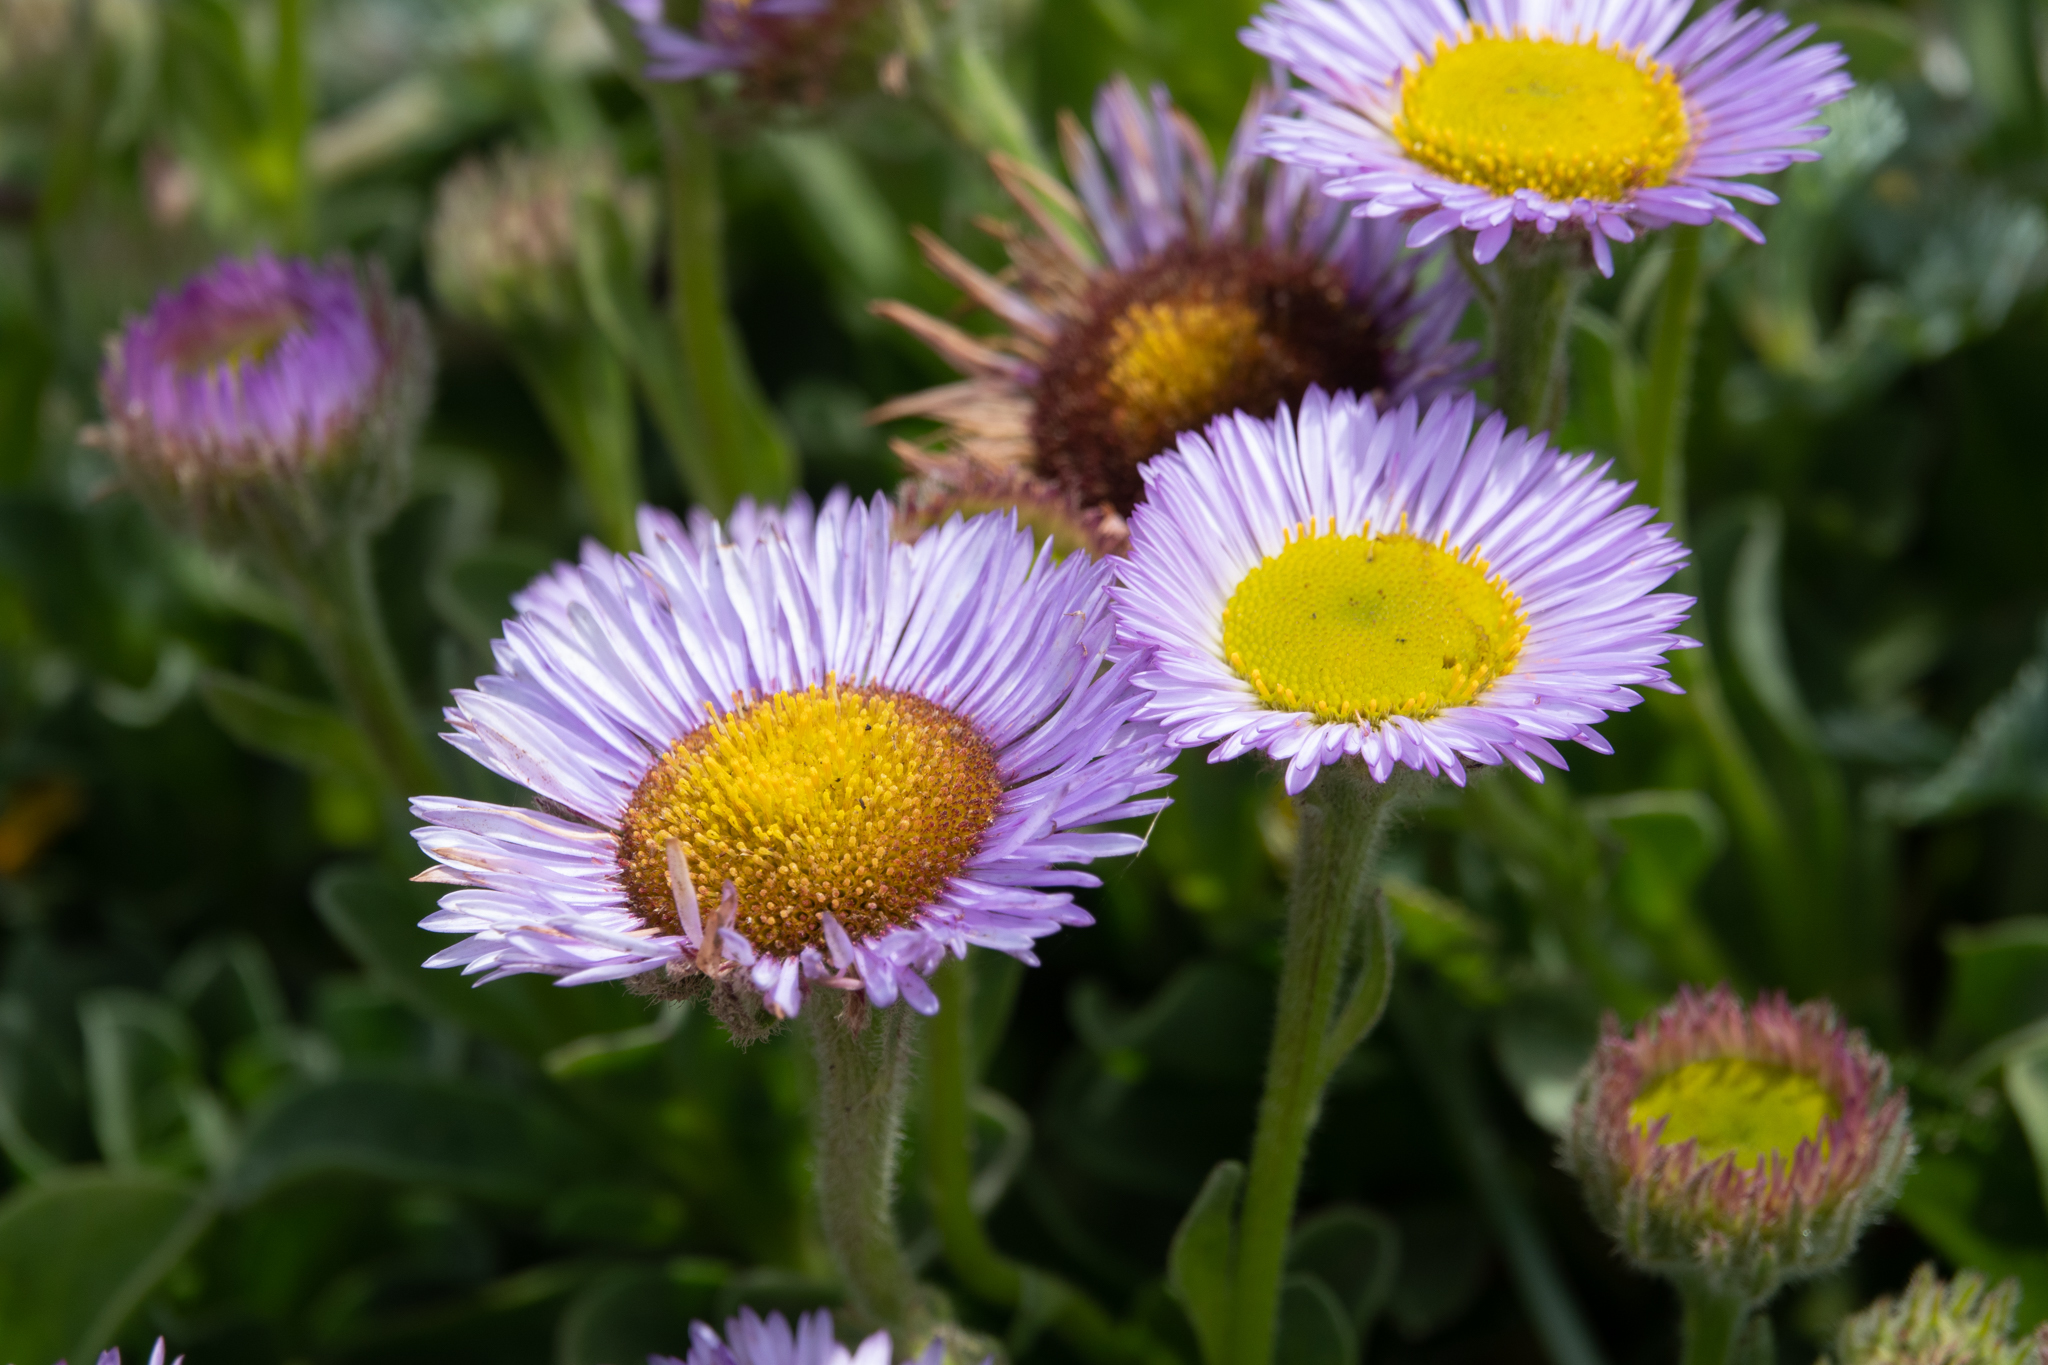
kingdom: Plantae
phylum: Tracheophyta
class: Magnoliopsida
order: Asterales
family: Asteraceae
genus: Erigeron
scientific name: Erigeron glaucus
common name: Seaside daisy
